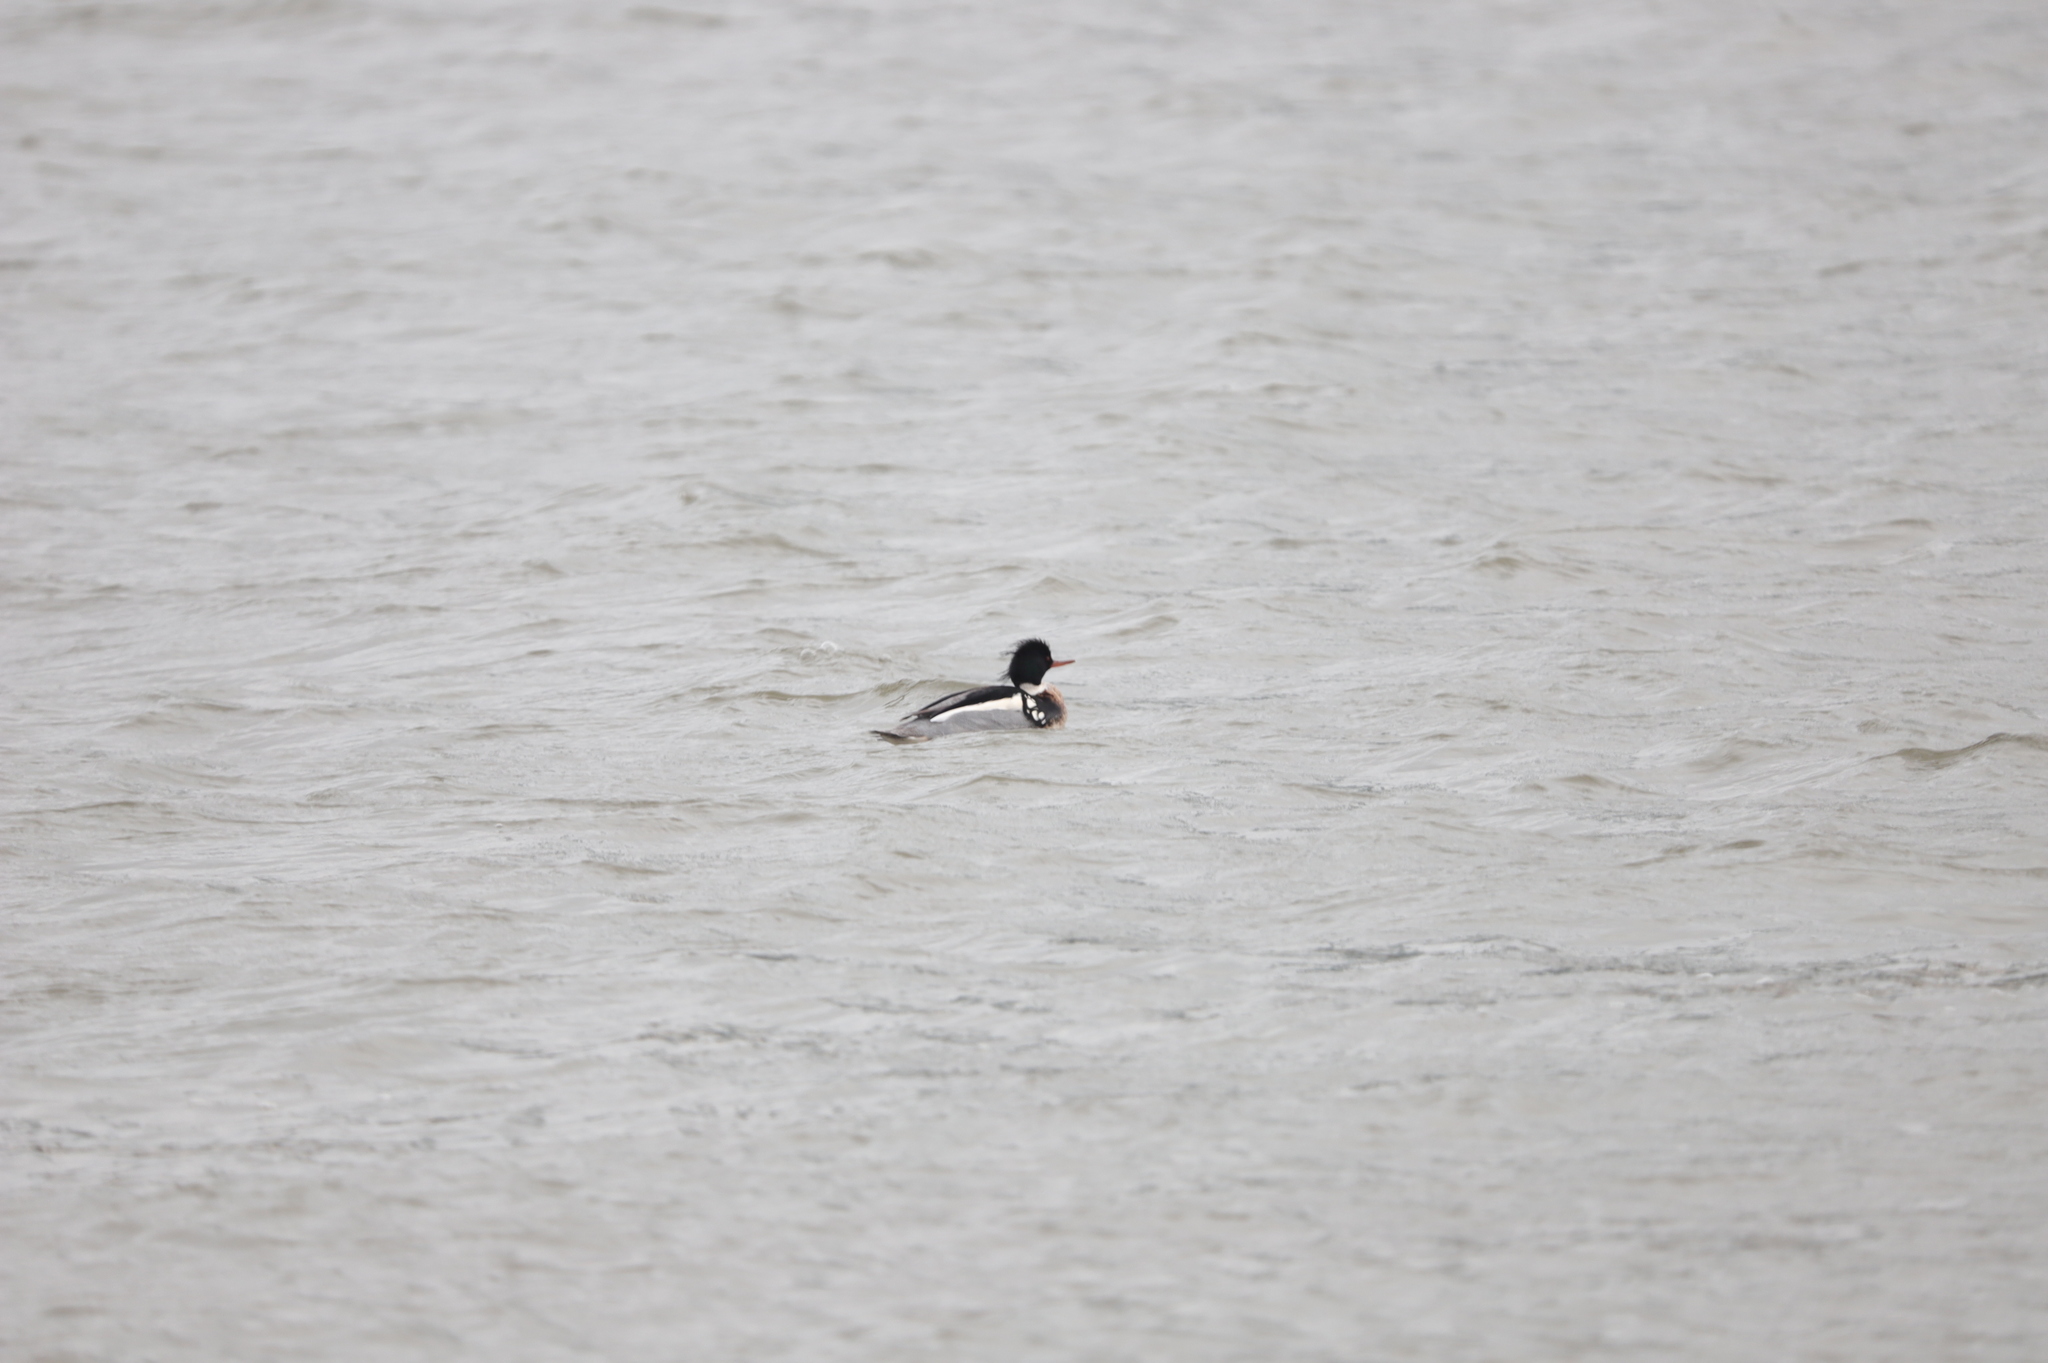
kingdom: Animalia
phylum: Chordata
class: Aves
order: Anseriformes
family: Anatidae
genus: Mergus
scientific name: Mergus serrator
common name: Red-breasted merganser
